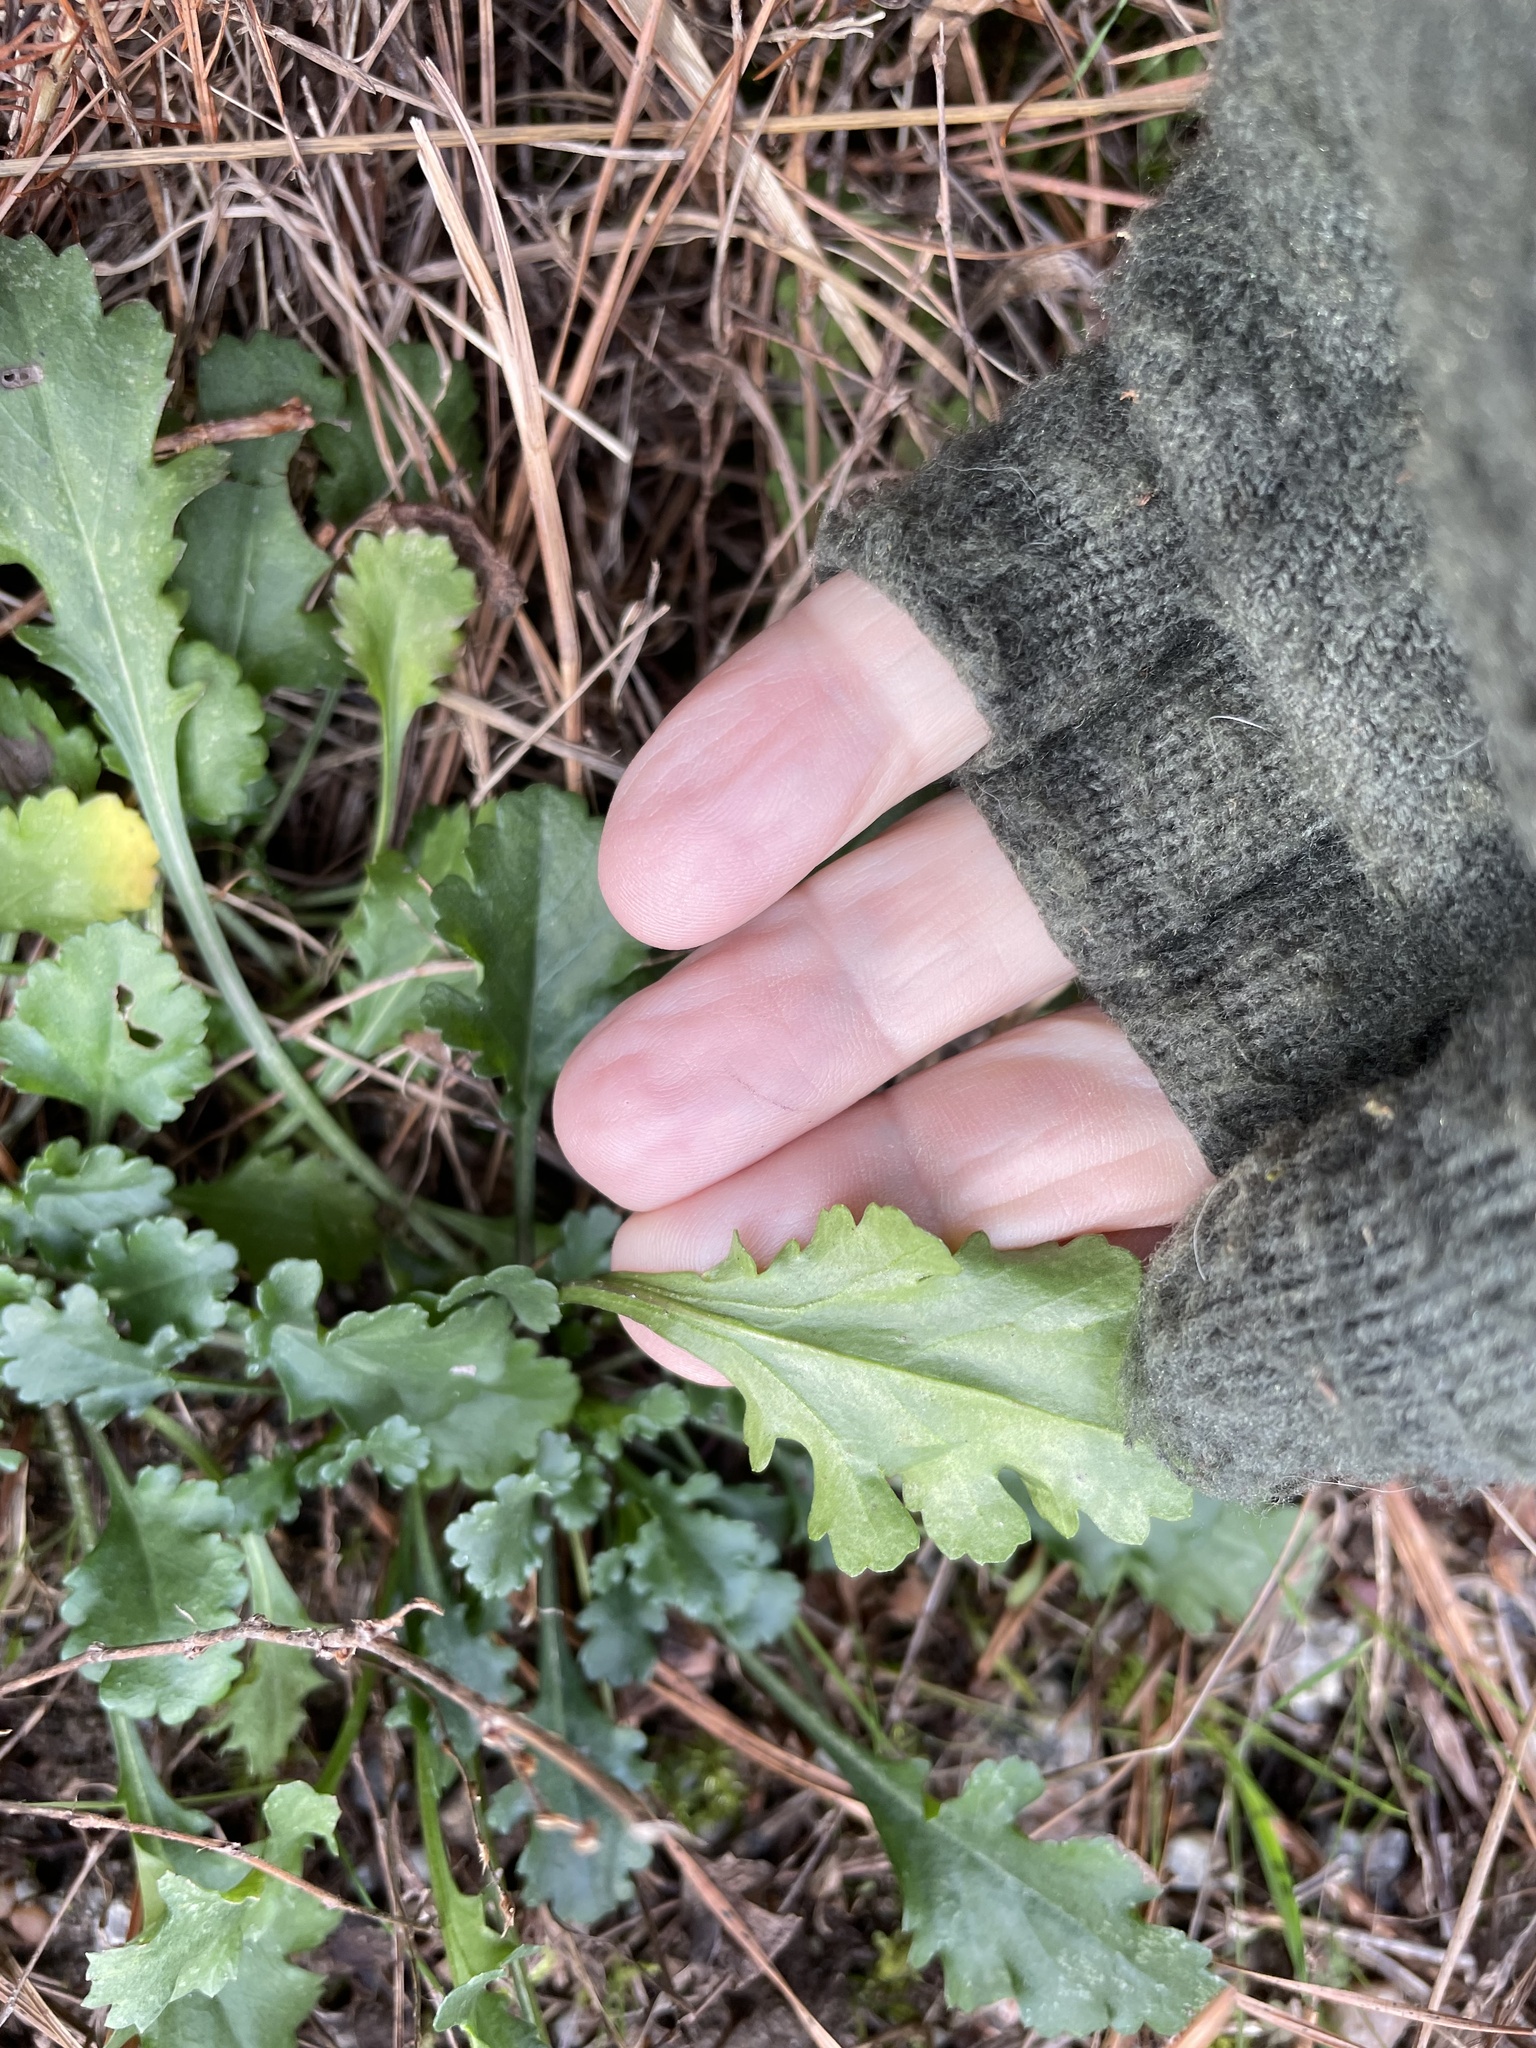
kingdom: Plantae
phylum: Tracheophyta
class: Magnoliopsida
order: Asterales
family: Asteraceae
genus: Leucanthemum
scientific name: Leucanthemum vulgare
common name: Oxeye daisy
